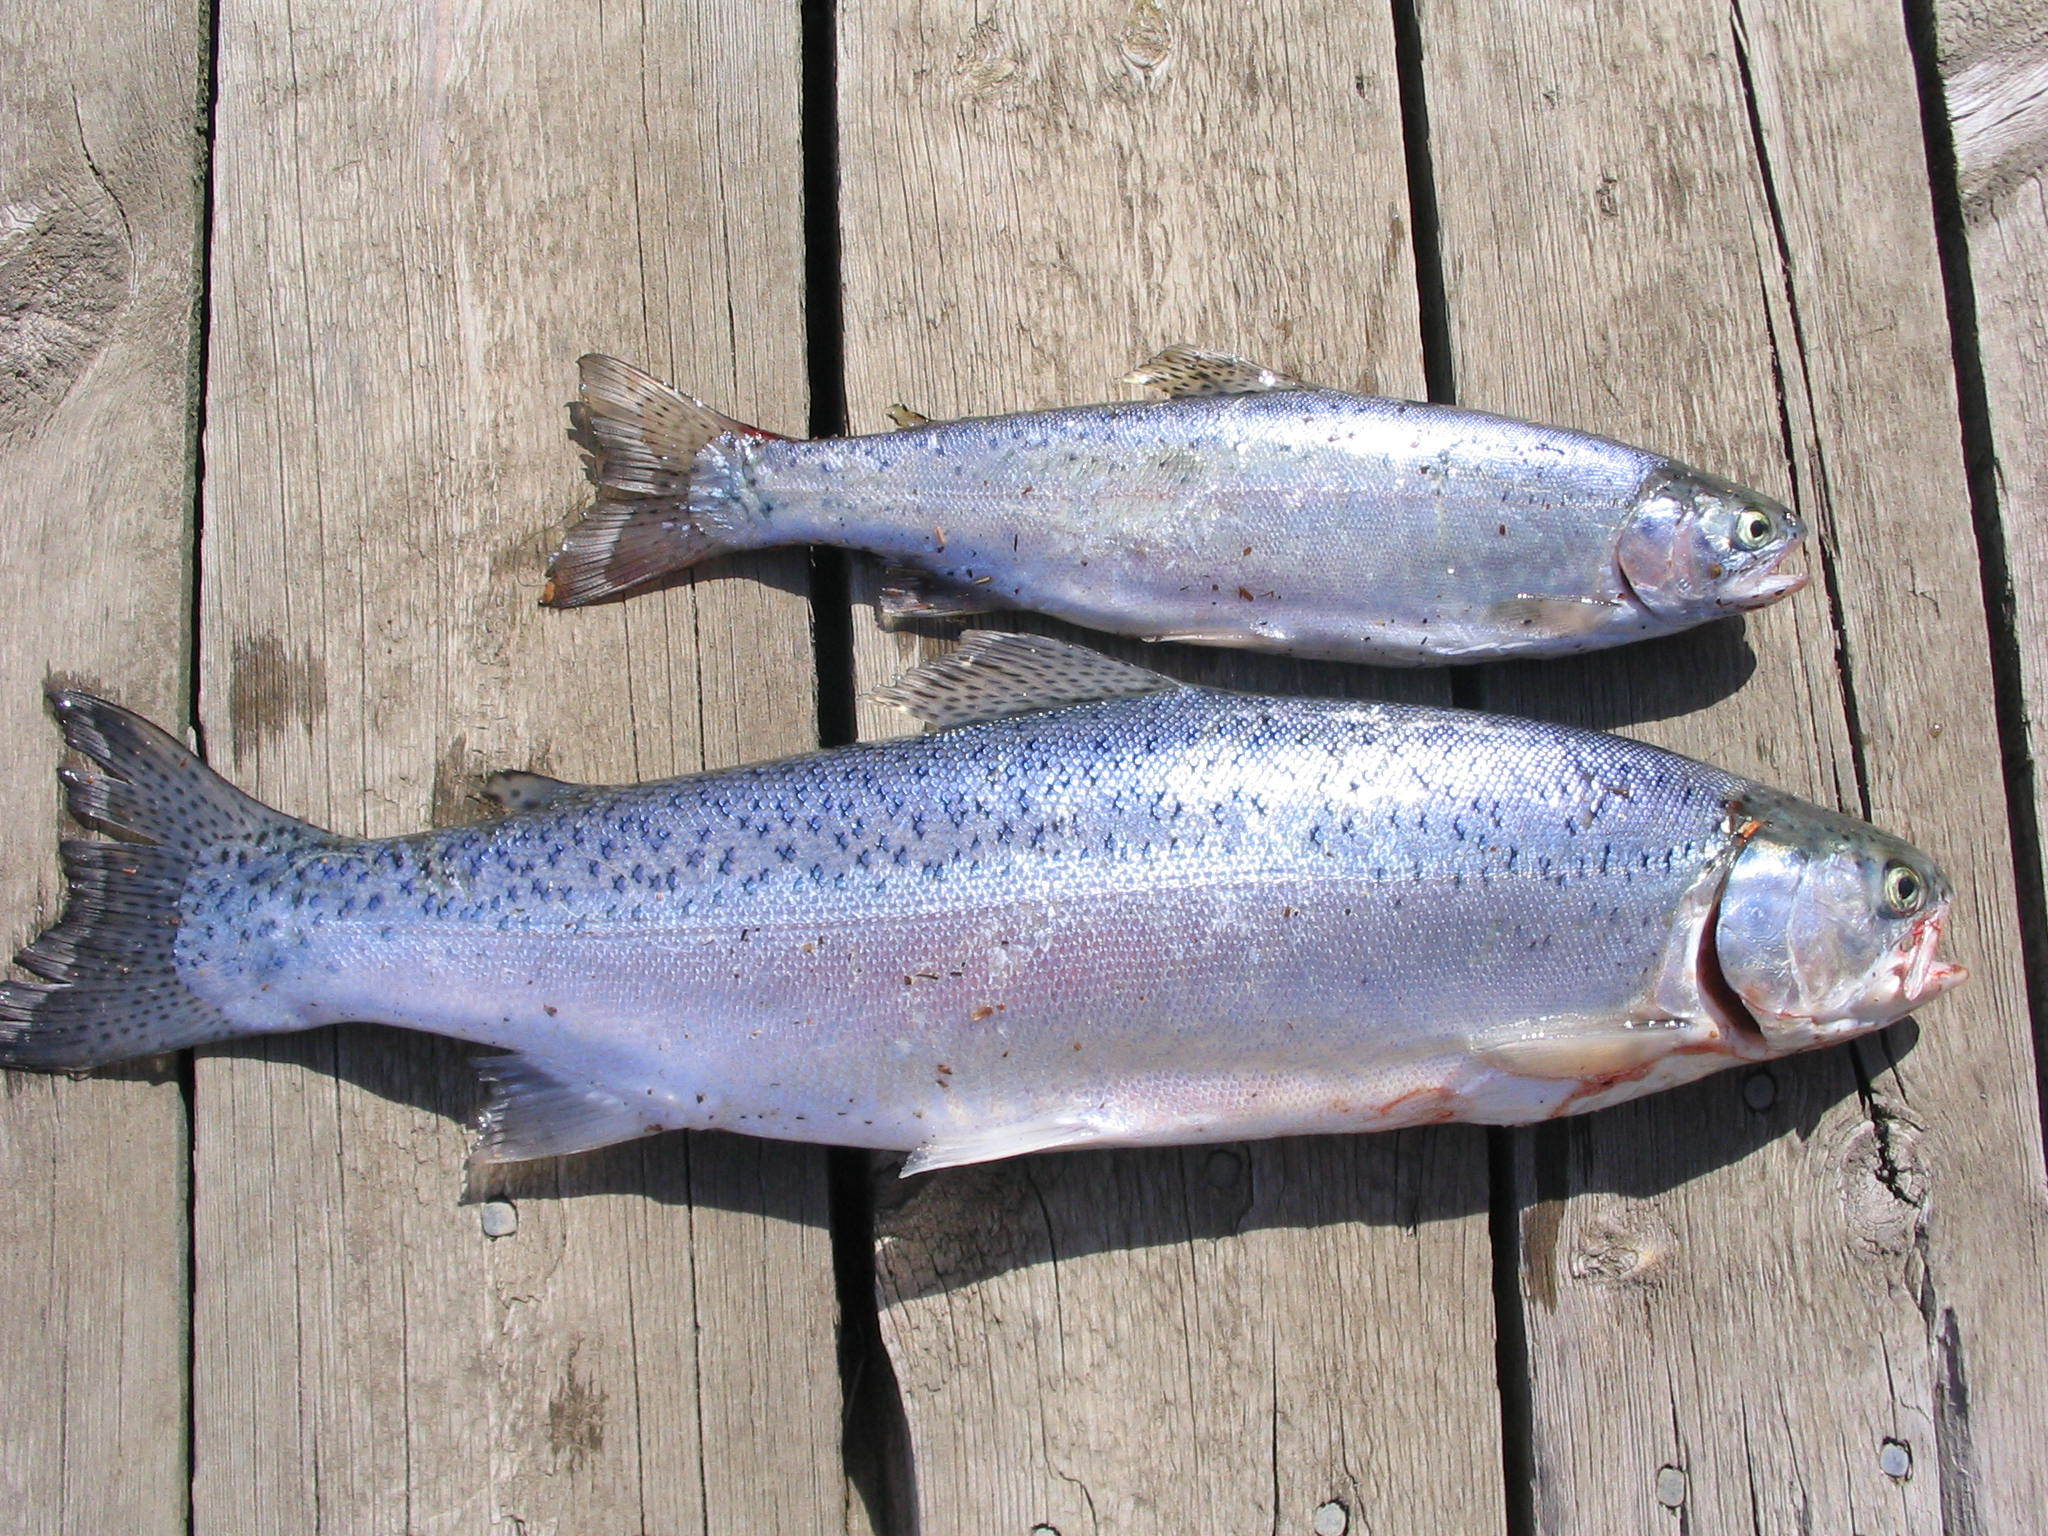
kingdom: Animalia
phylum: Chordata
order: Salmoniformes
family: Salmonidae
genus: Oncorhynchus
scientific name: Oncorhynchus mykiss
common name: Rainbow trout
